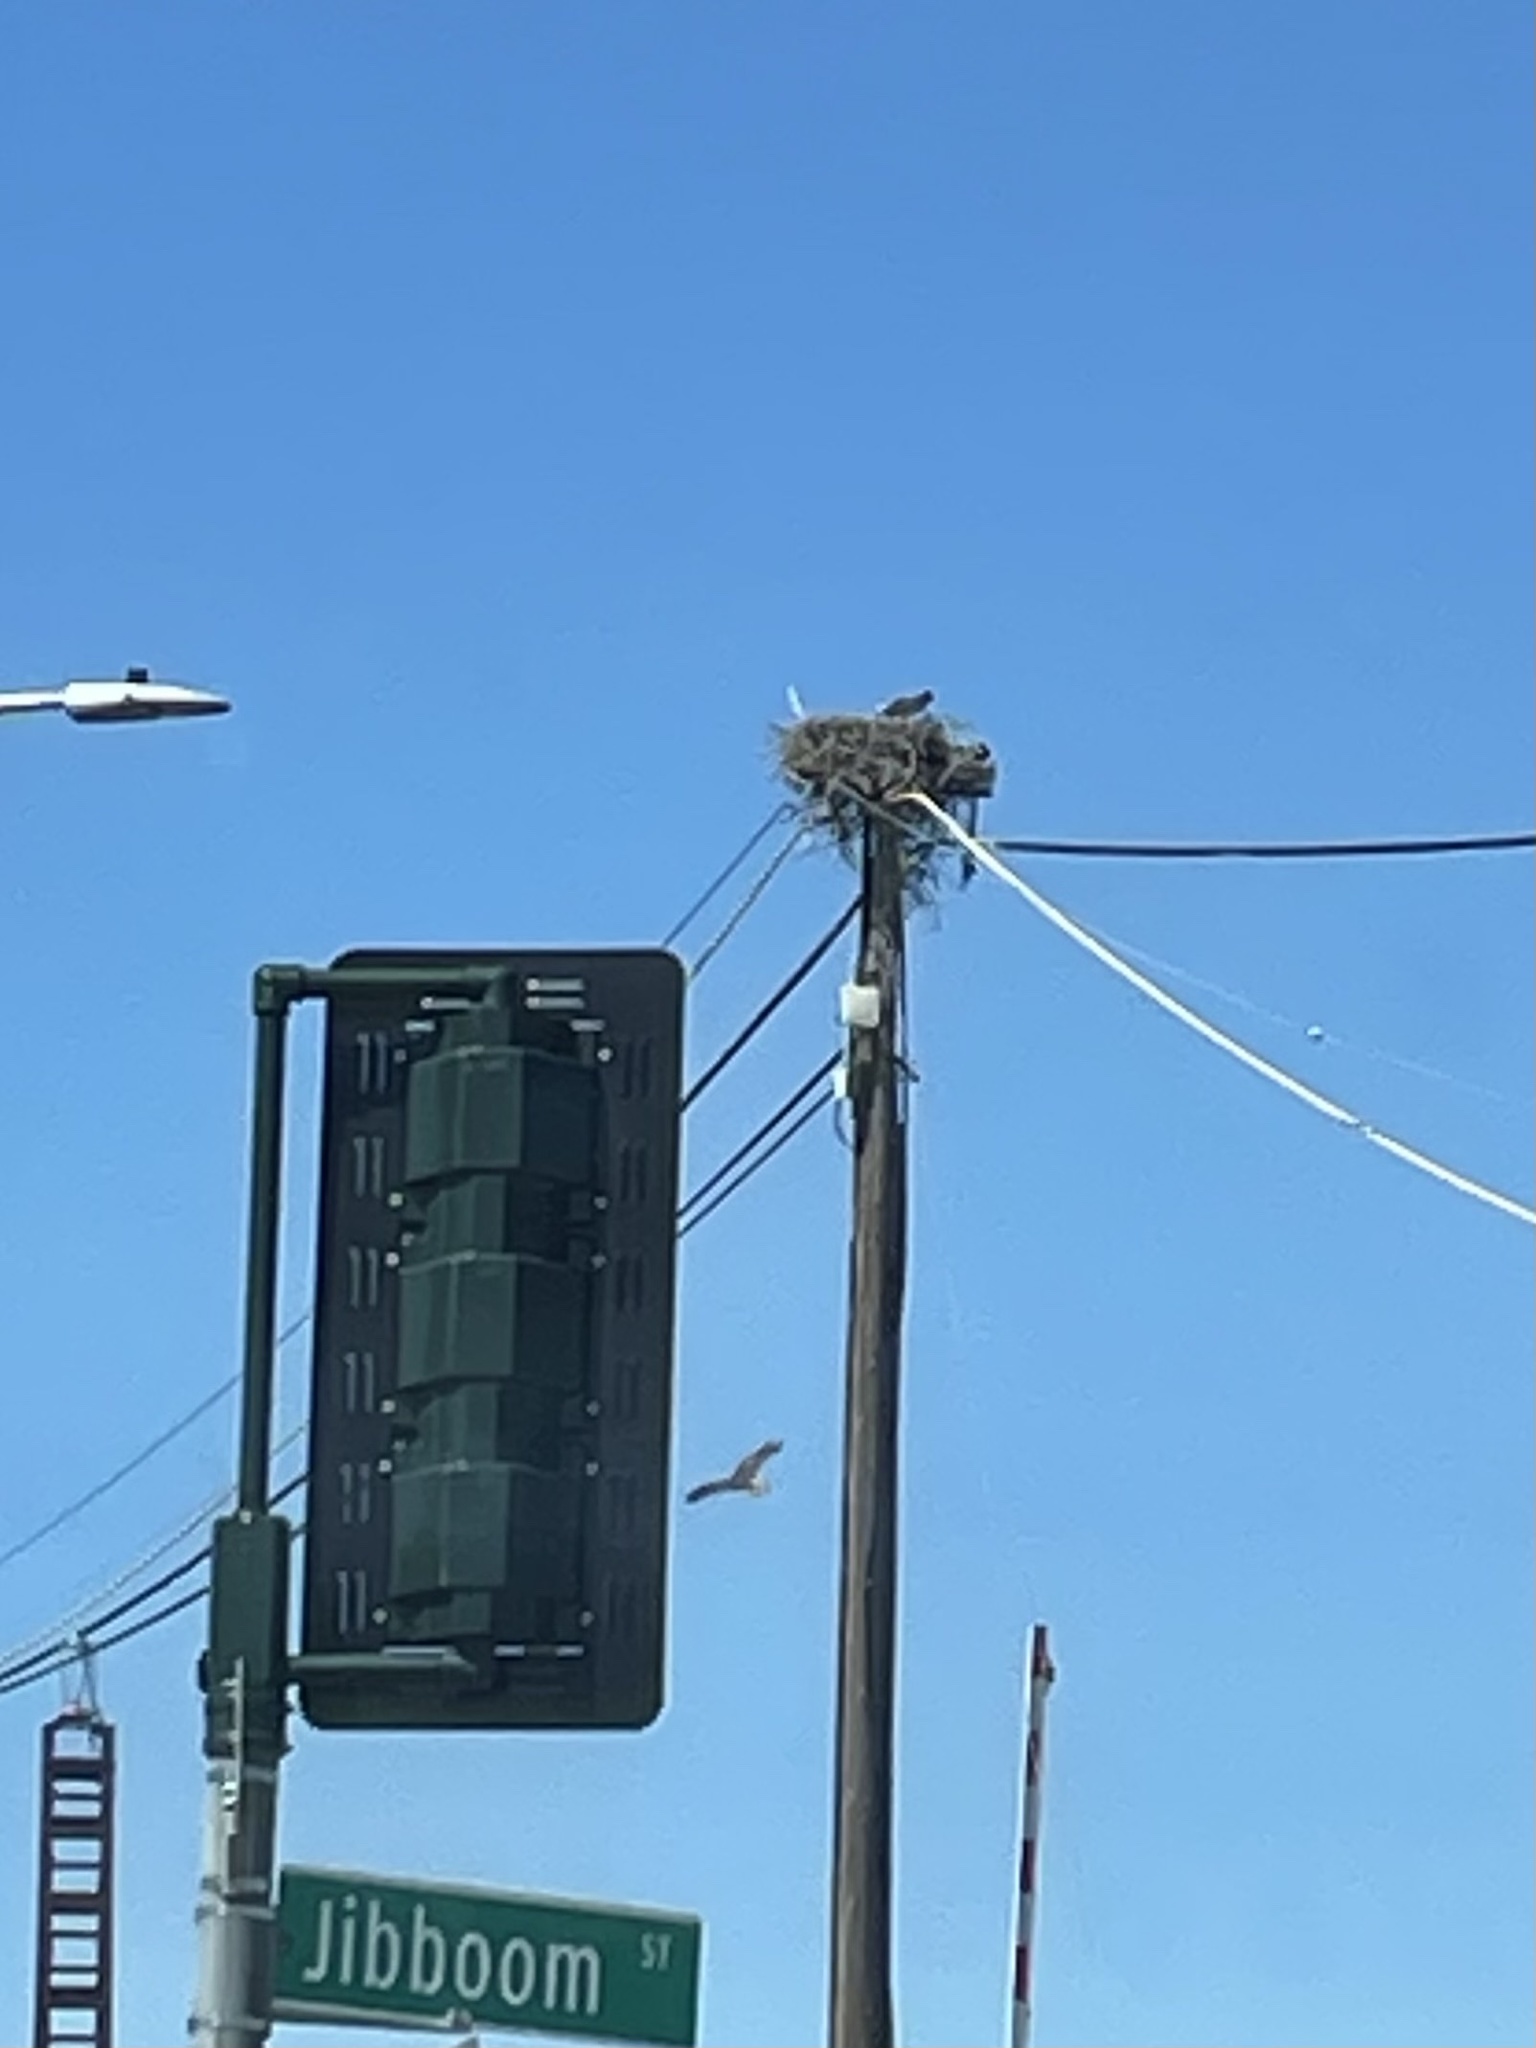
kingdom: Animalia
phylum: Chordata
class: Aves
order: Accipitriformes
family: Pandionidae
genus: Pandion
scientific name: Pandion haliaetus
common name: Osprey
